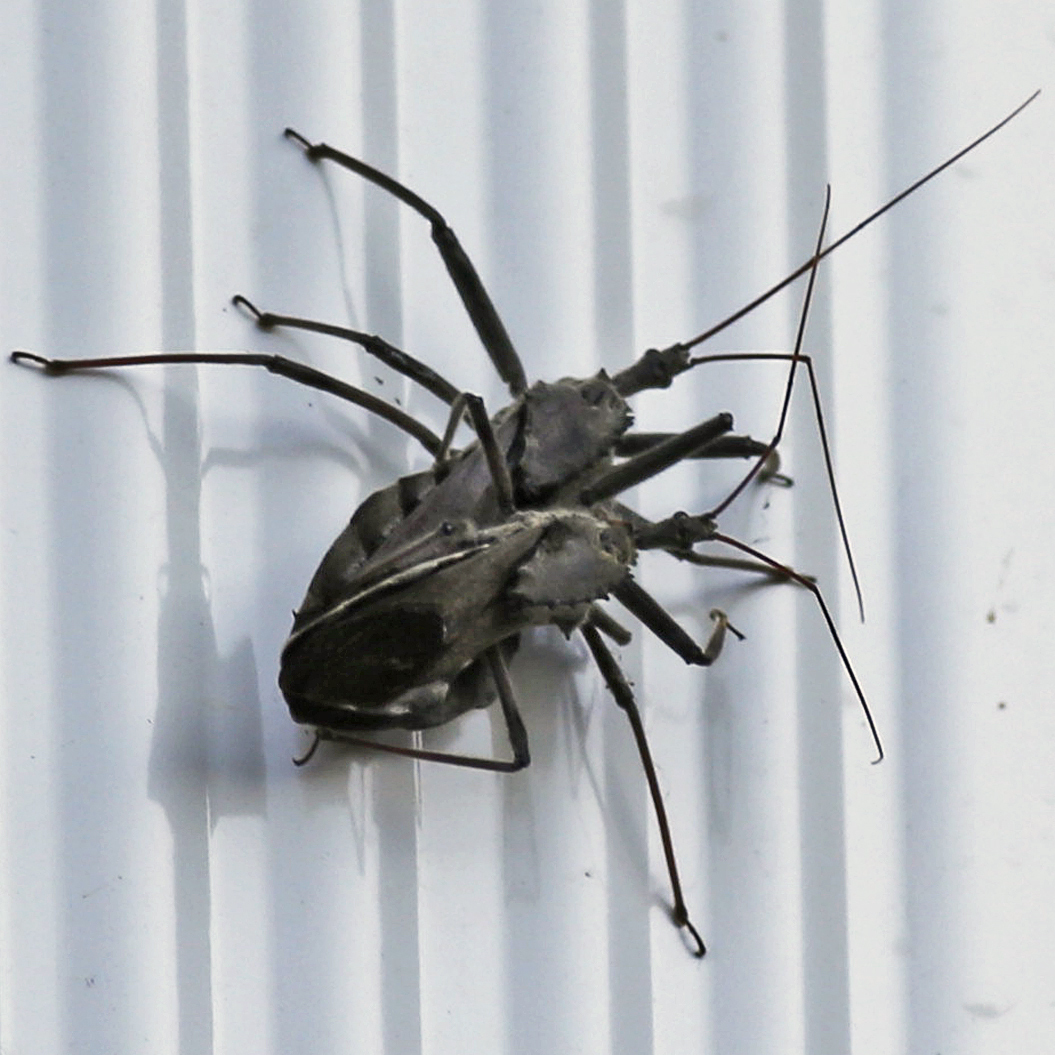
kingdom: Animalia
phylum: Arthropoda
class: Insecta
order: Hemiptera
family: Reduviidae
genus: Arilus
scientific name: Arilus cristatus
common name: North american wheel bug
